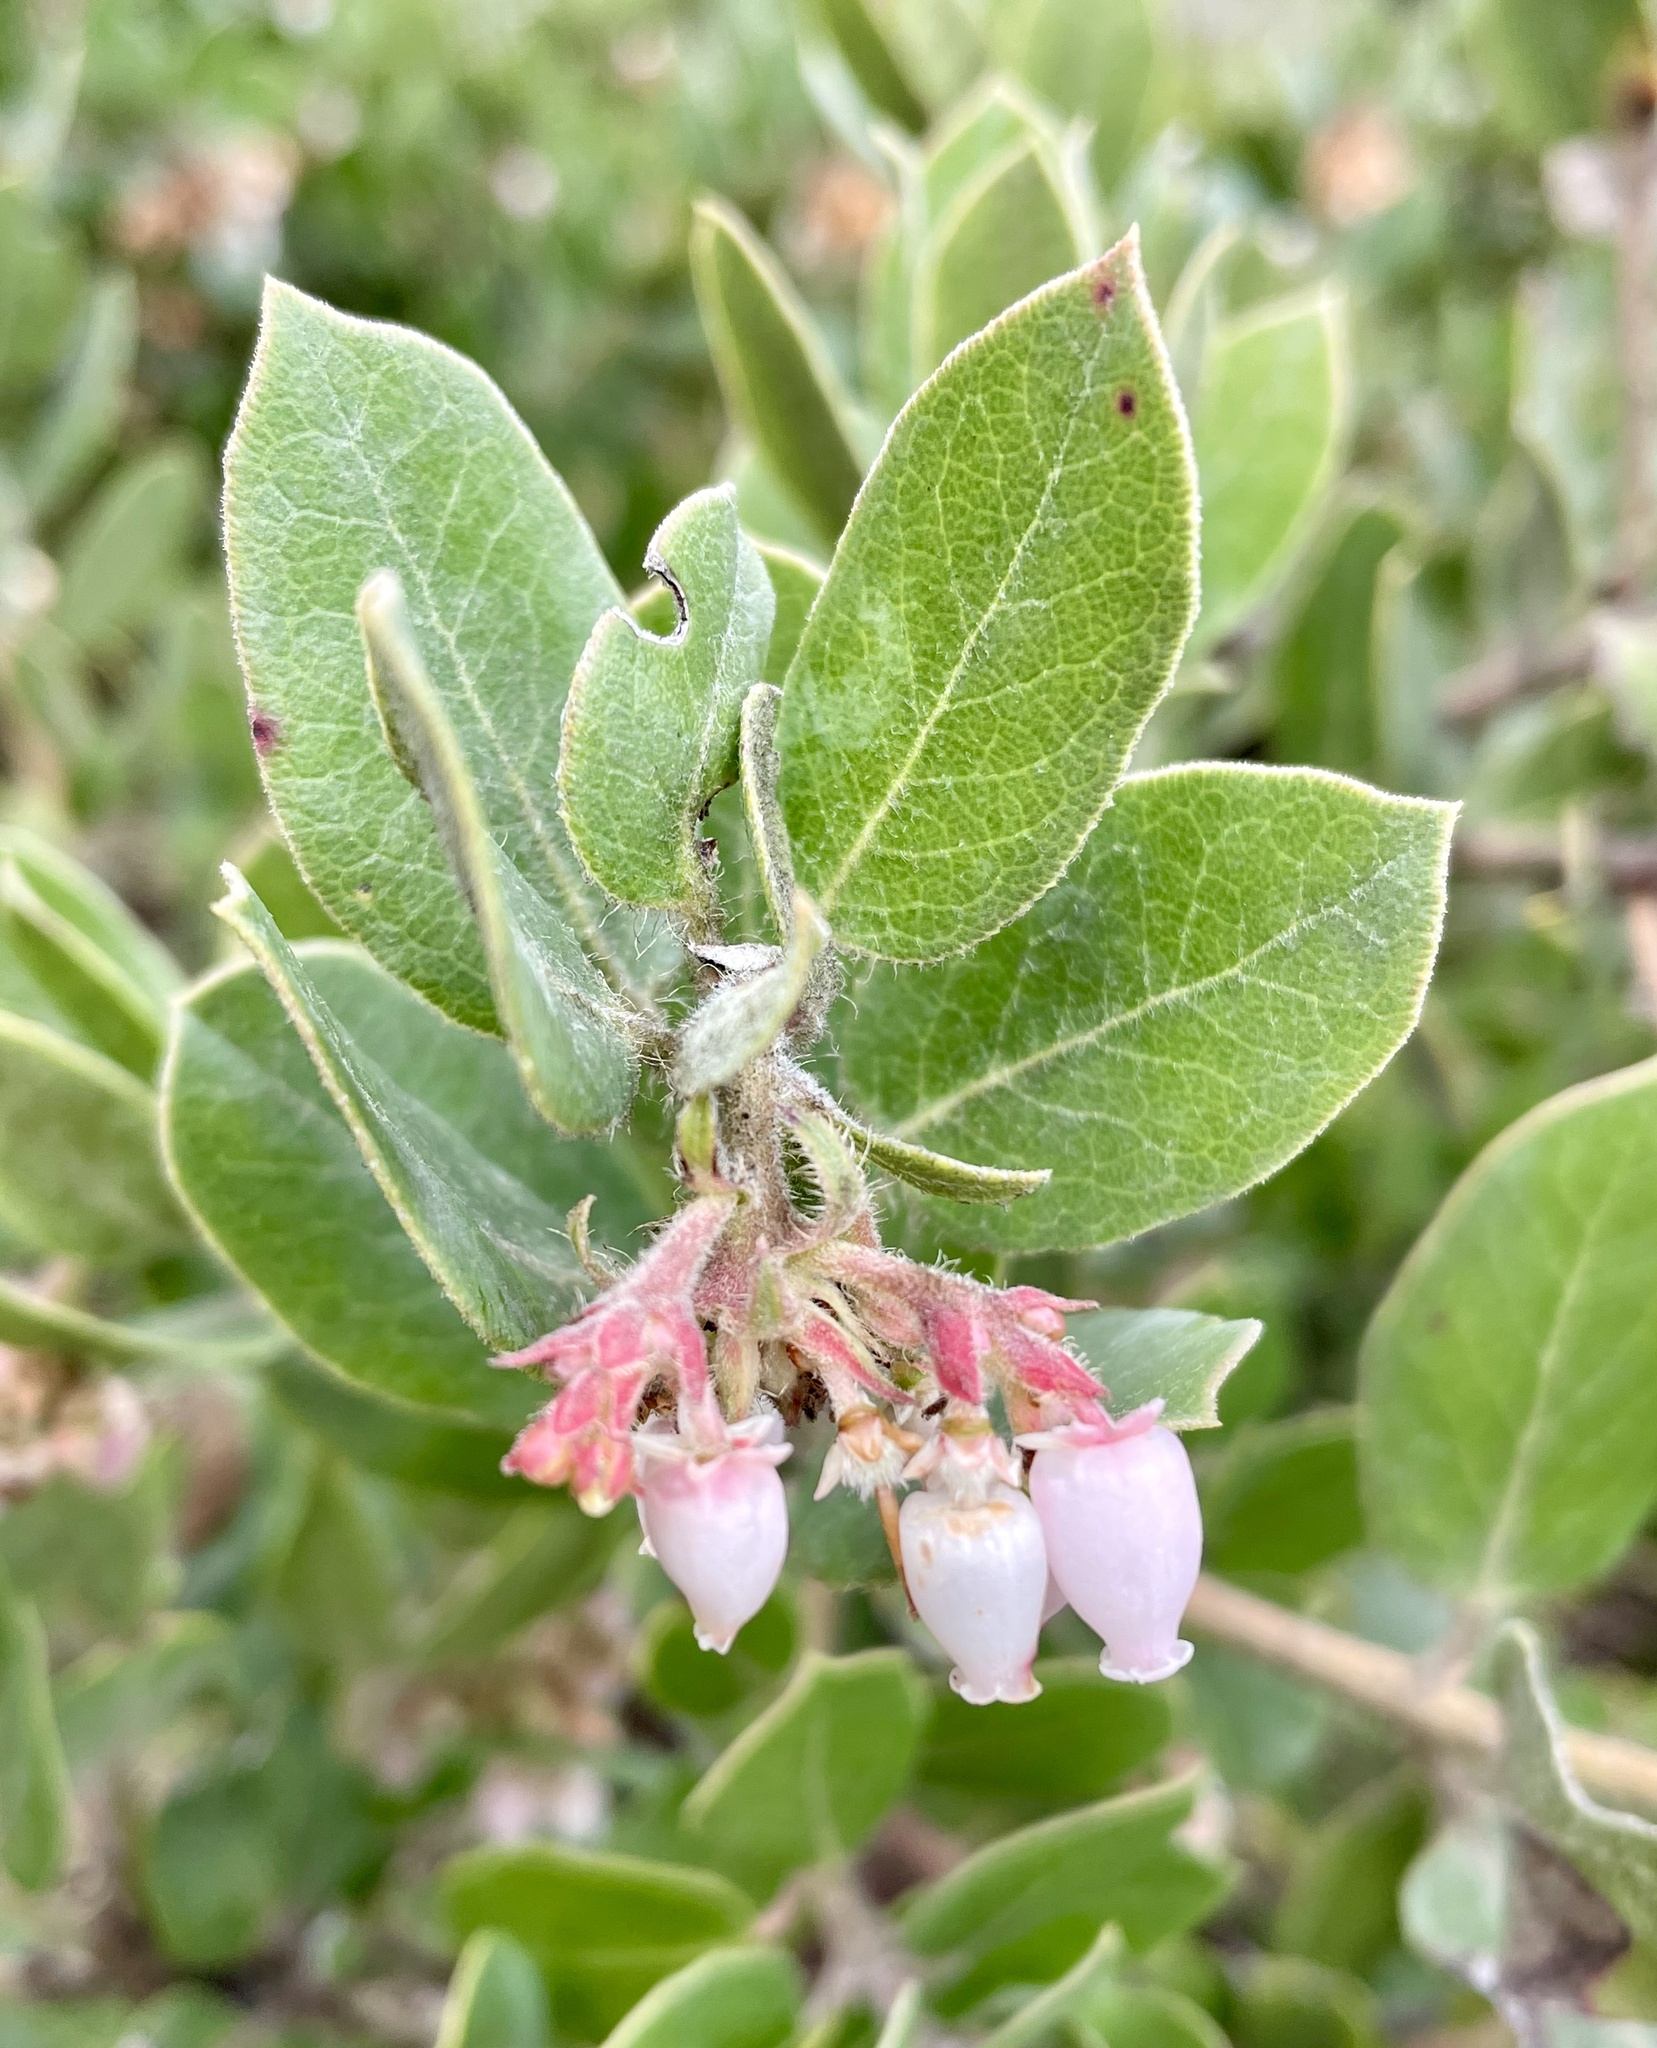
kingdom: Plantae
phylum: Tracheophyta
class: Magnoliopsida
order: Ericales
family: Ericaceae
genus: Arctostaphylos
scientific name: Arctostaphylos crustacea
